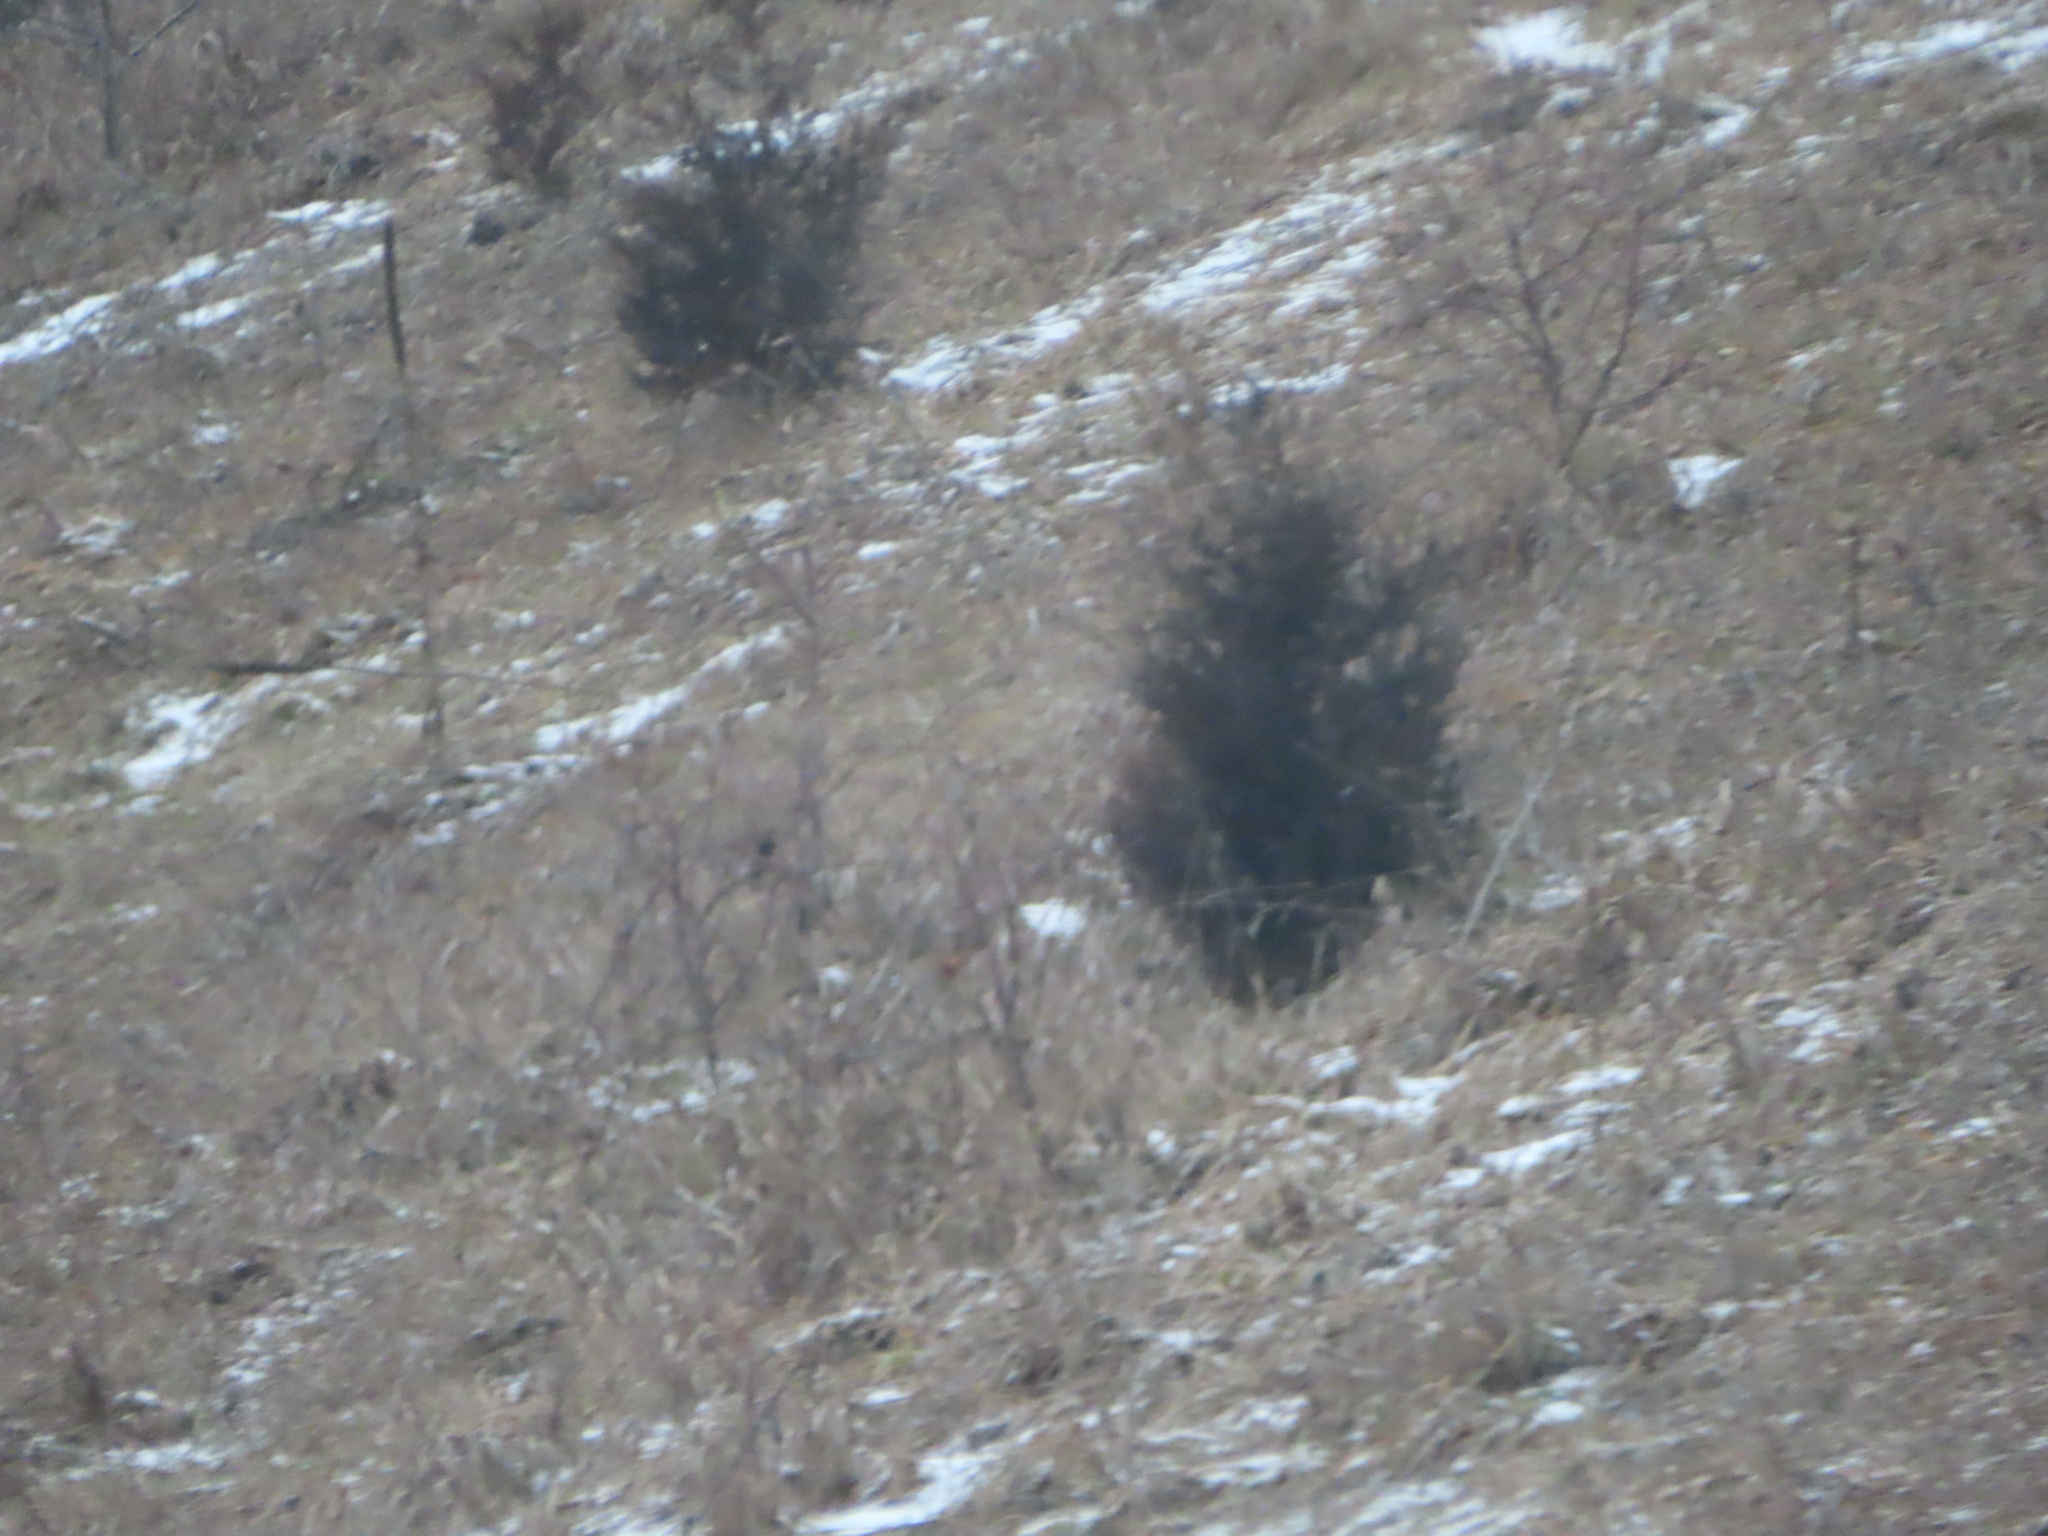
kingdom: Plantae
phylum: Tracheophyta
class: Pinopsida
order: Pinales
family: Cupressaceae
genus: Juniperus
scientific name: Juniperus virginiana
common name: Red juniper
